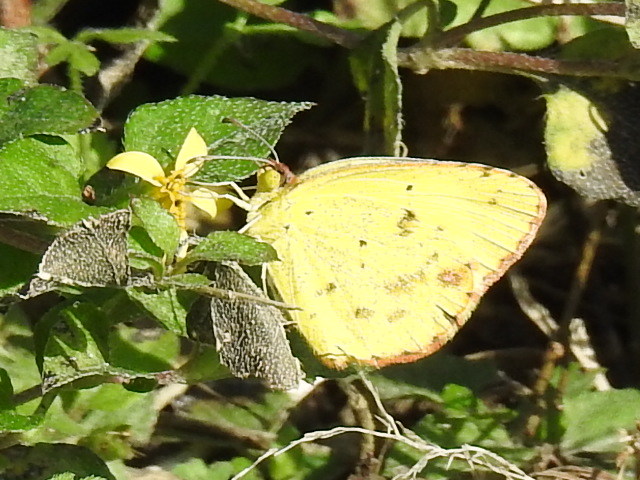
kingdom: Animalia
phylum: Arthropoda
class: Insecta
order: Lepidoptera
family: Pieridae
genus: Pyrisitia
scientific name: Pyrisitia lisa
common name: Little yellow
